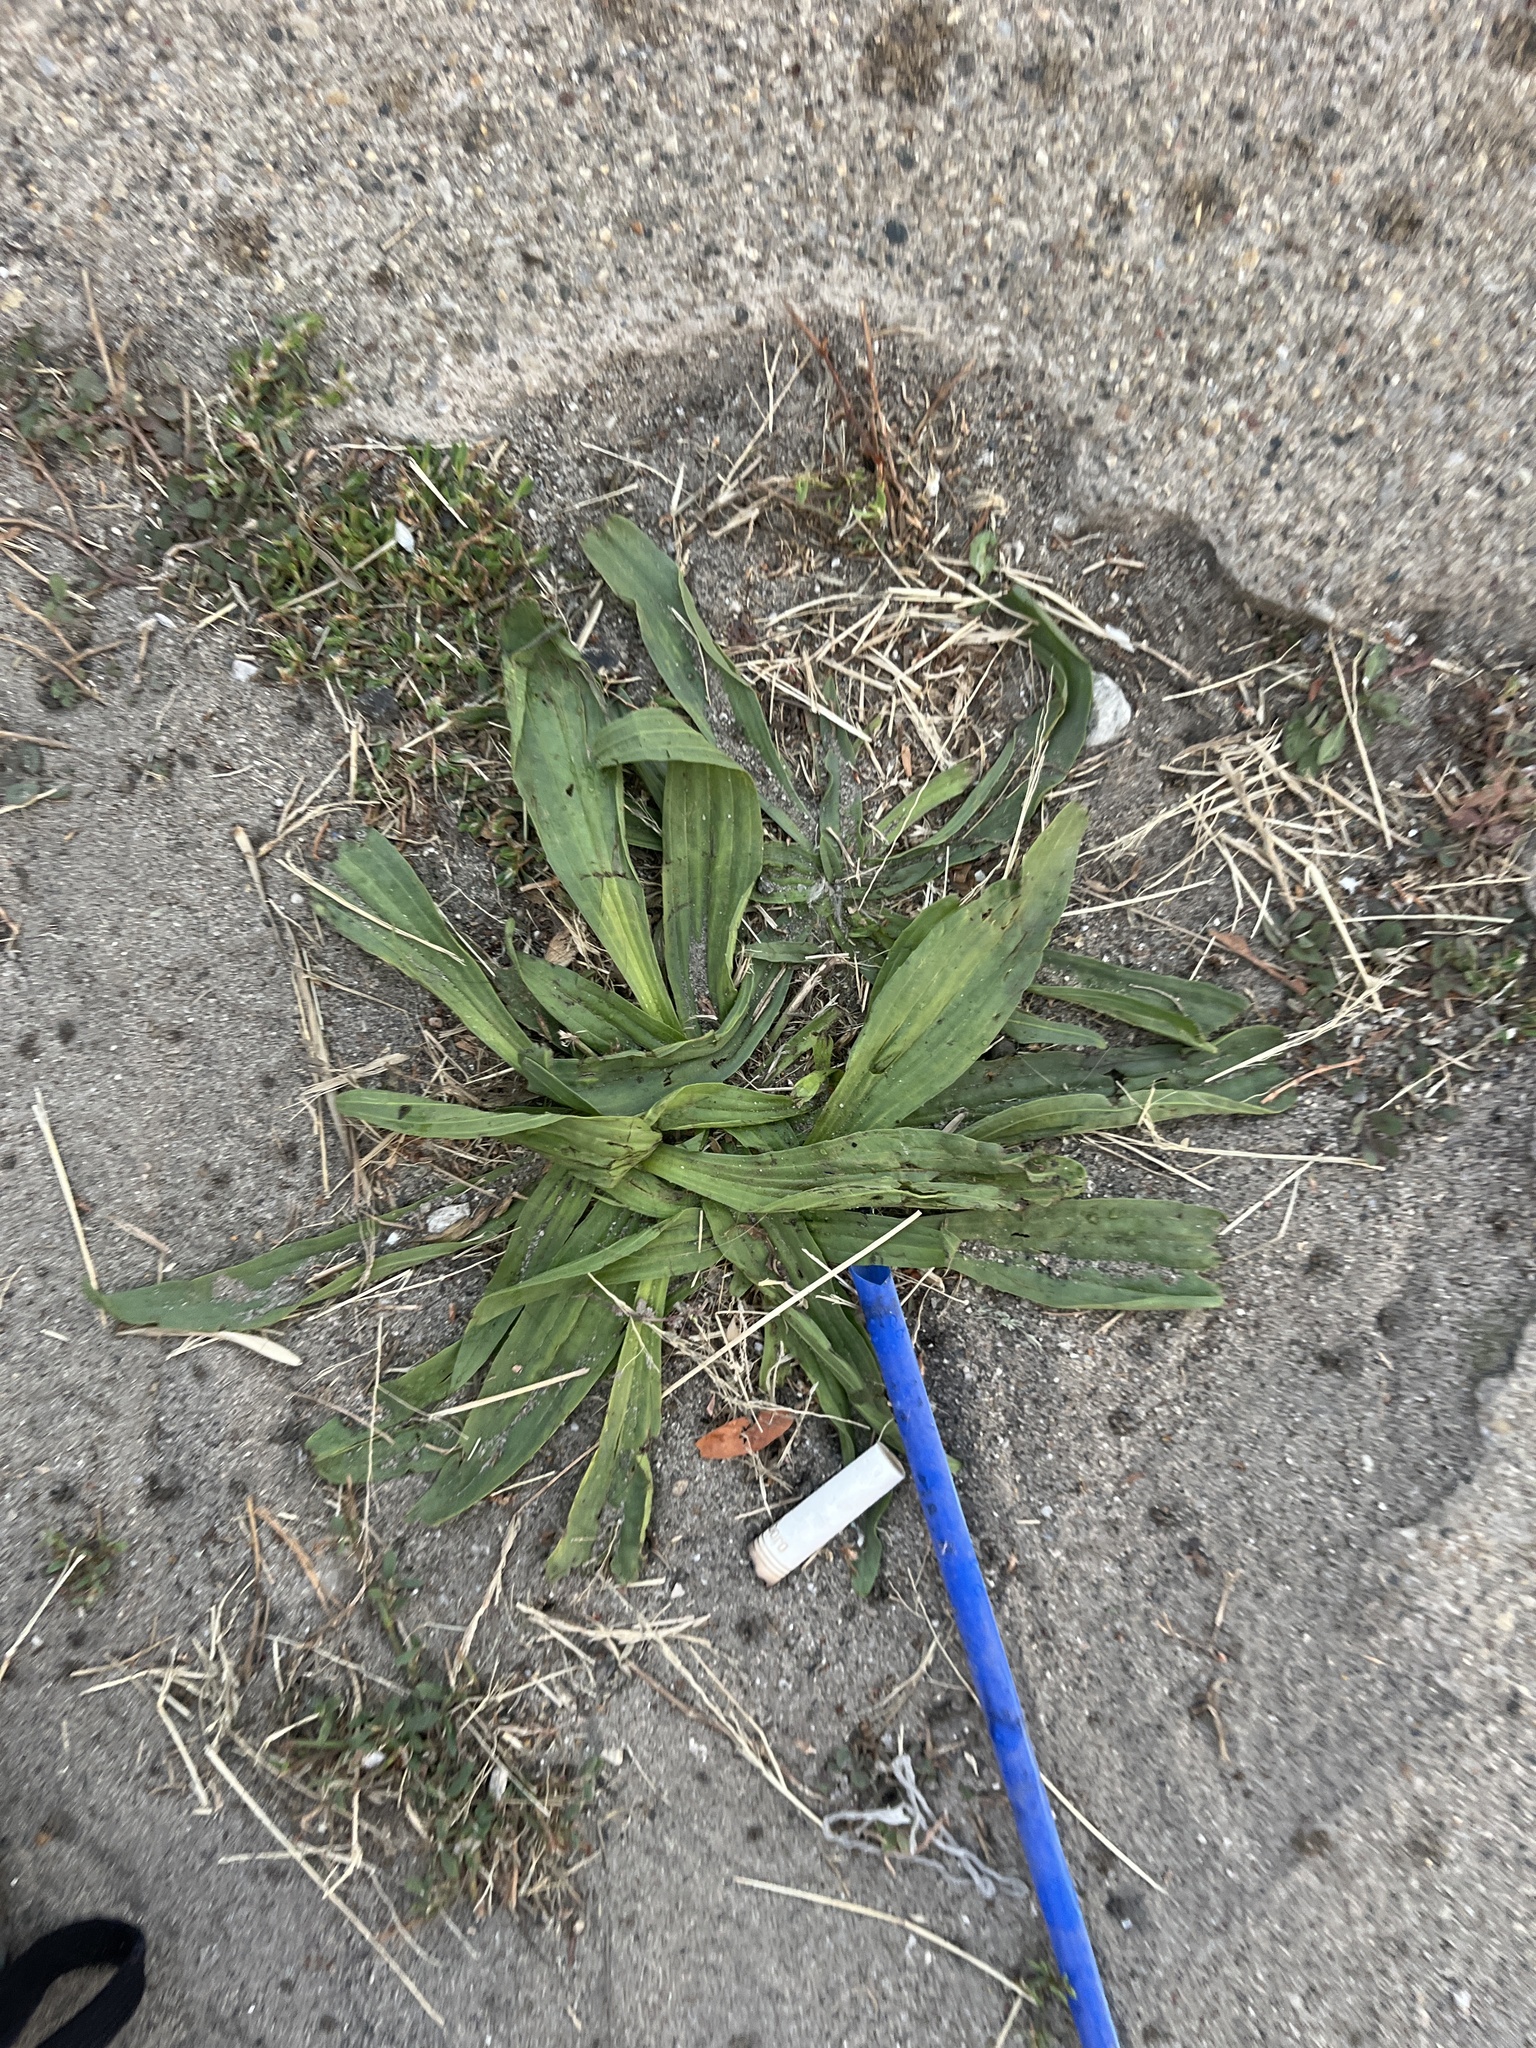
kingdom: Plantae
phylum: Tracheophyta
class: Magnoliopsida
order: Lamiales
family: Plantaginaceae
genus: Plantago
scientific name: Plantago lanceolata
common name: Ribwort plantain
